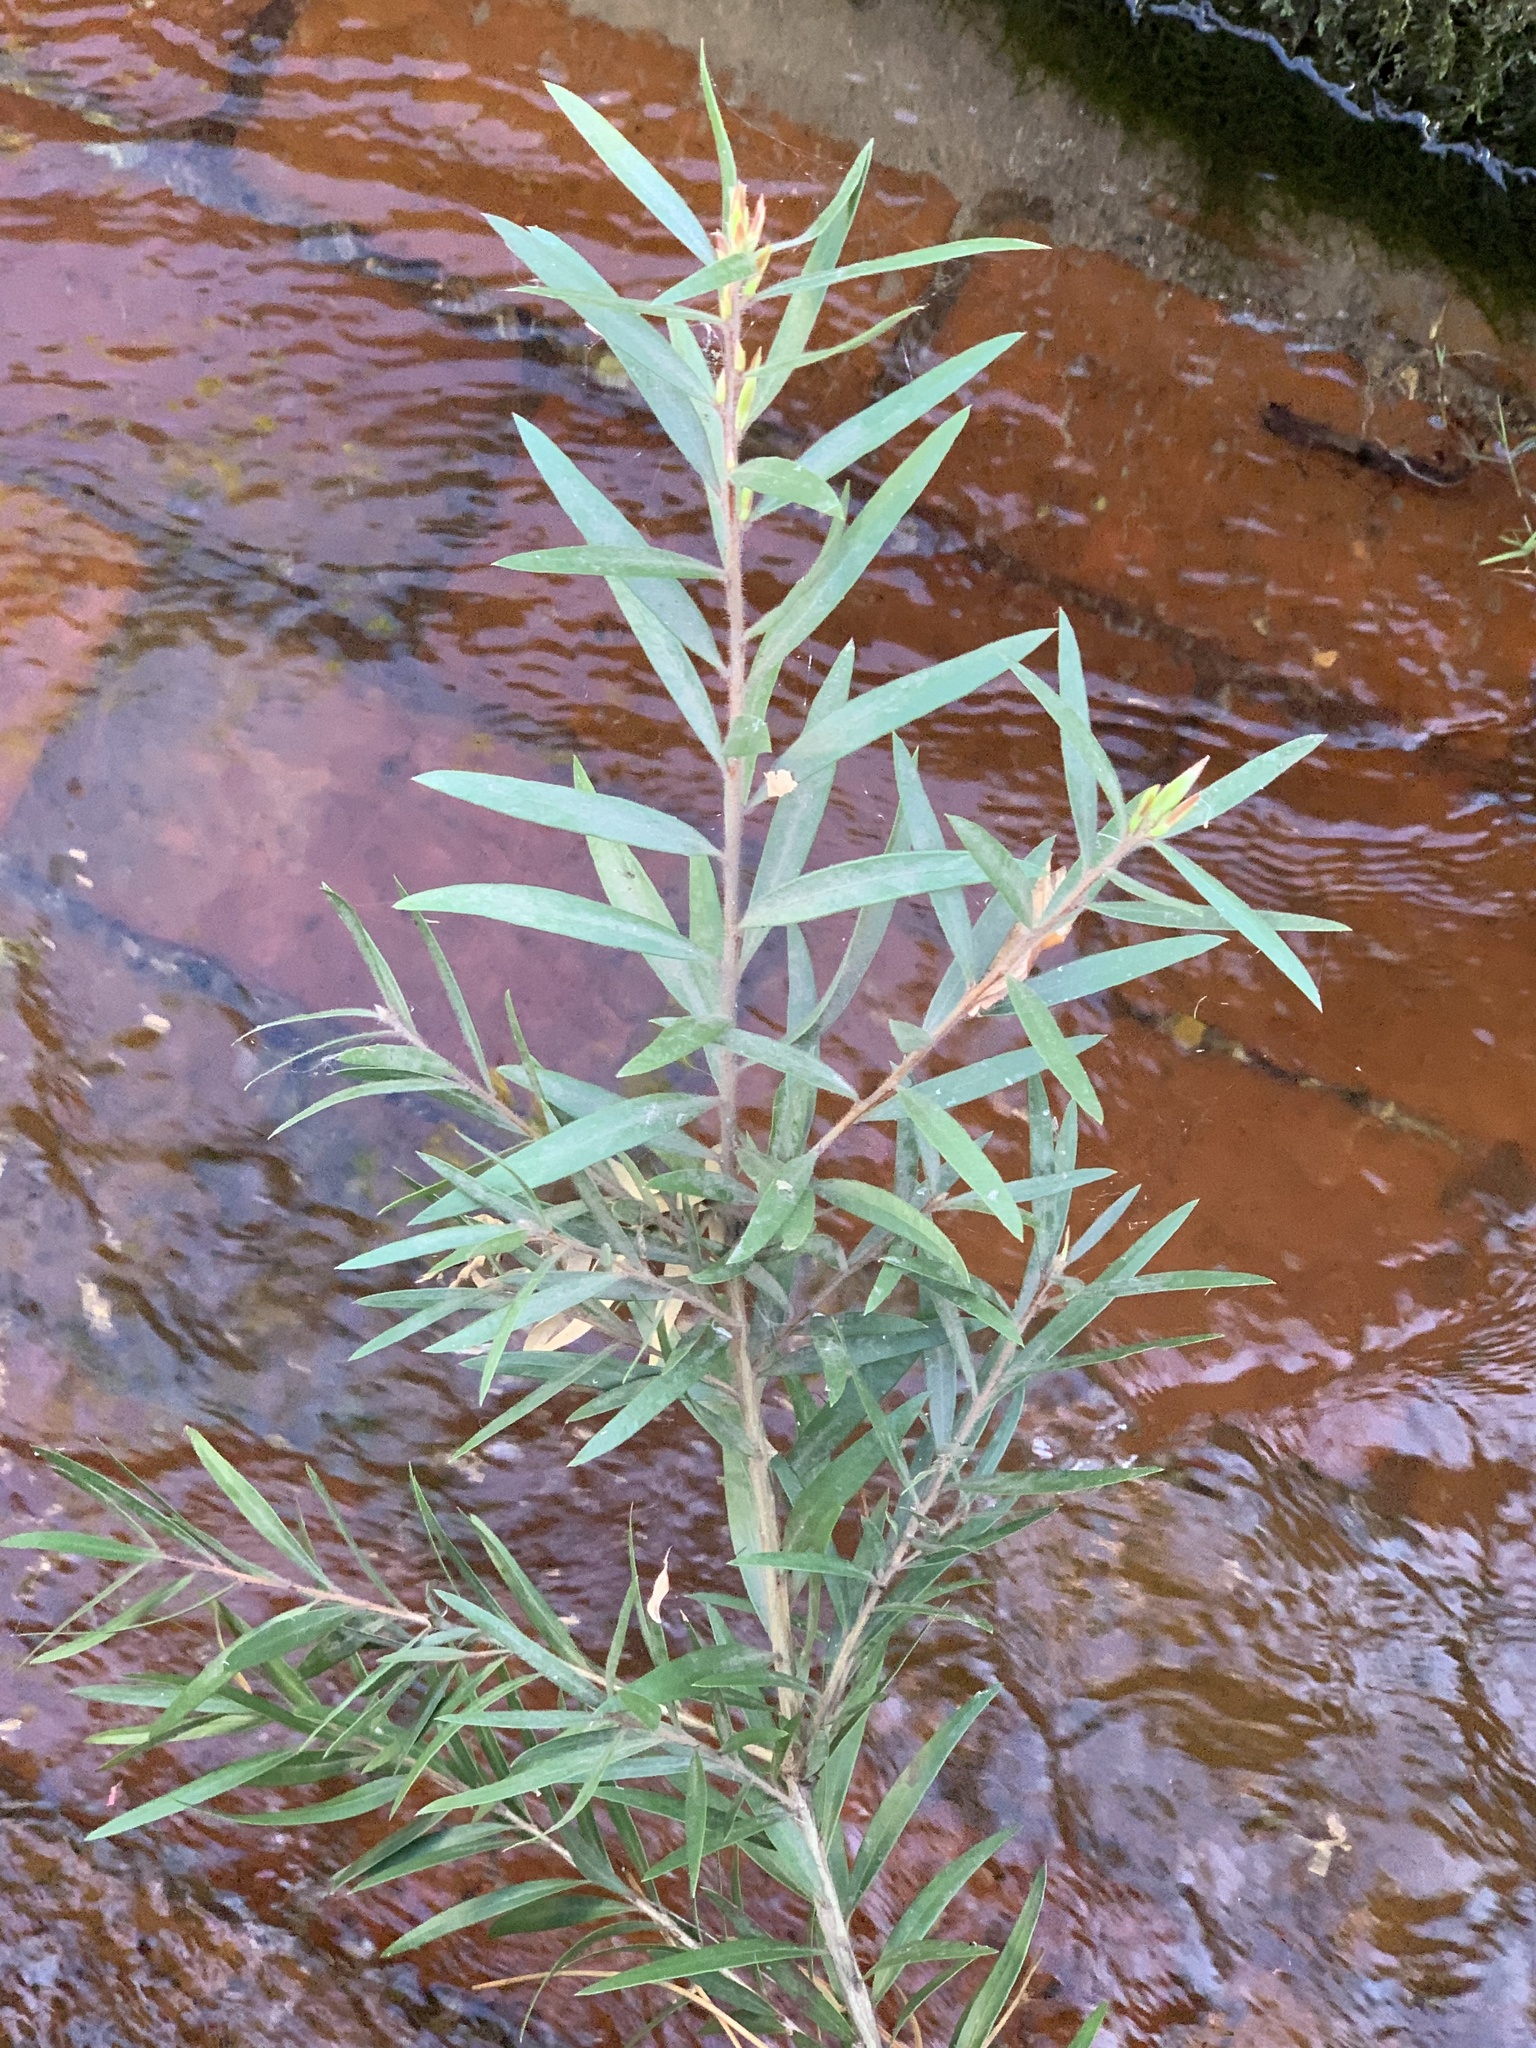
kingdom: Plantae
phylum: Tracheophyta
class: Magnoliopsida
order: Myrtales
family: Myrtaceae
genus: Callistemon
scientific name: Callistemon viminalis
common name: Drooping bottlebrush
